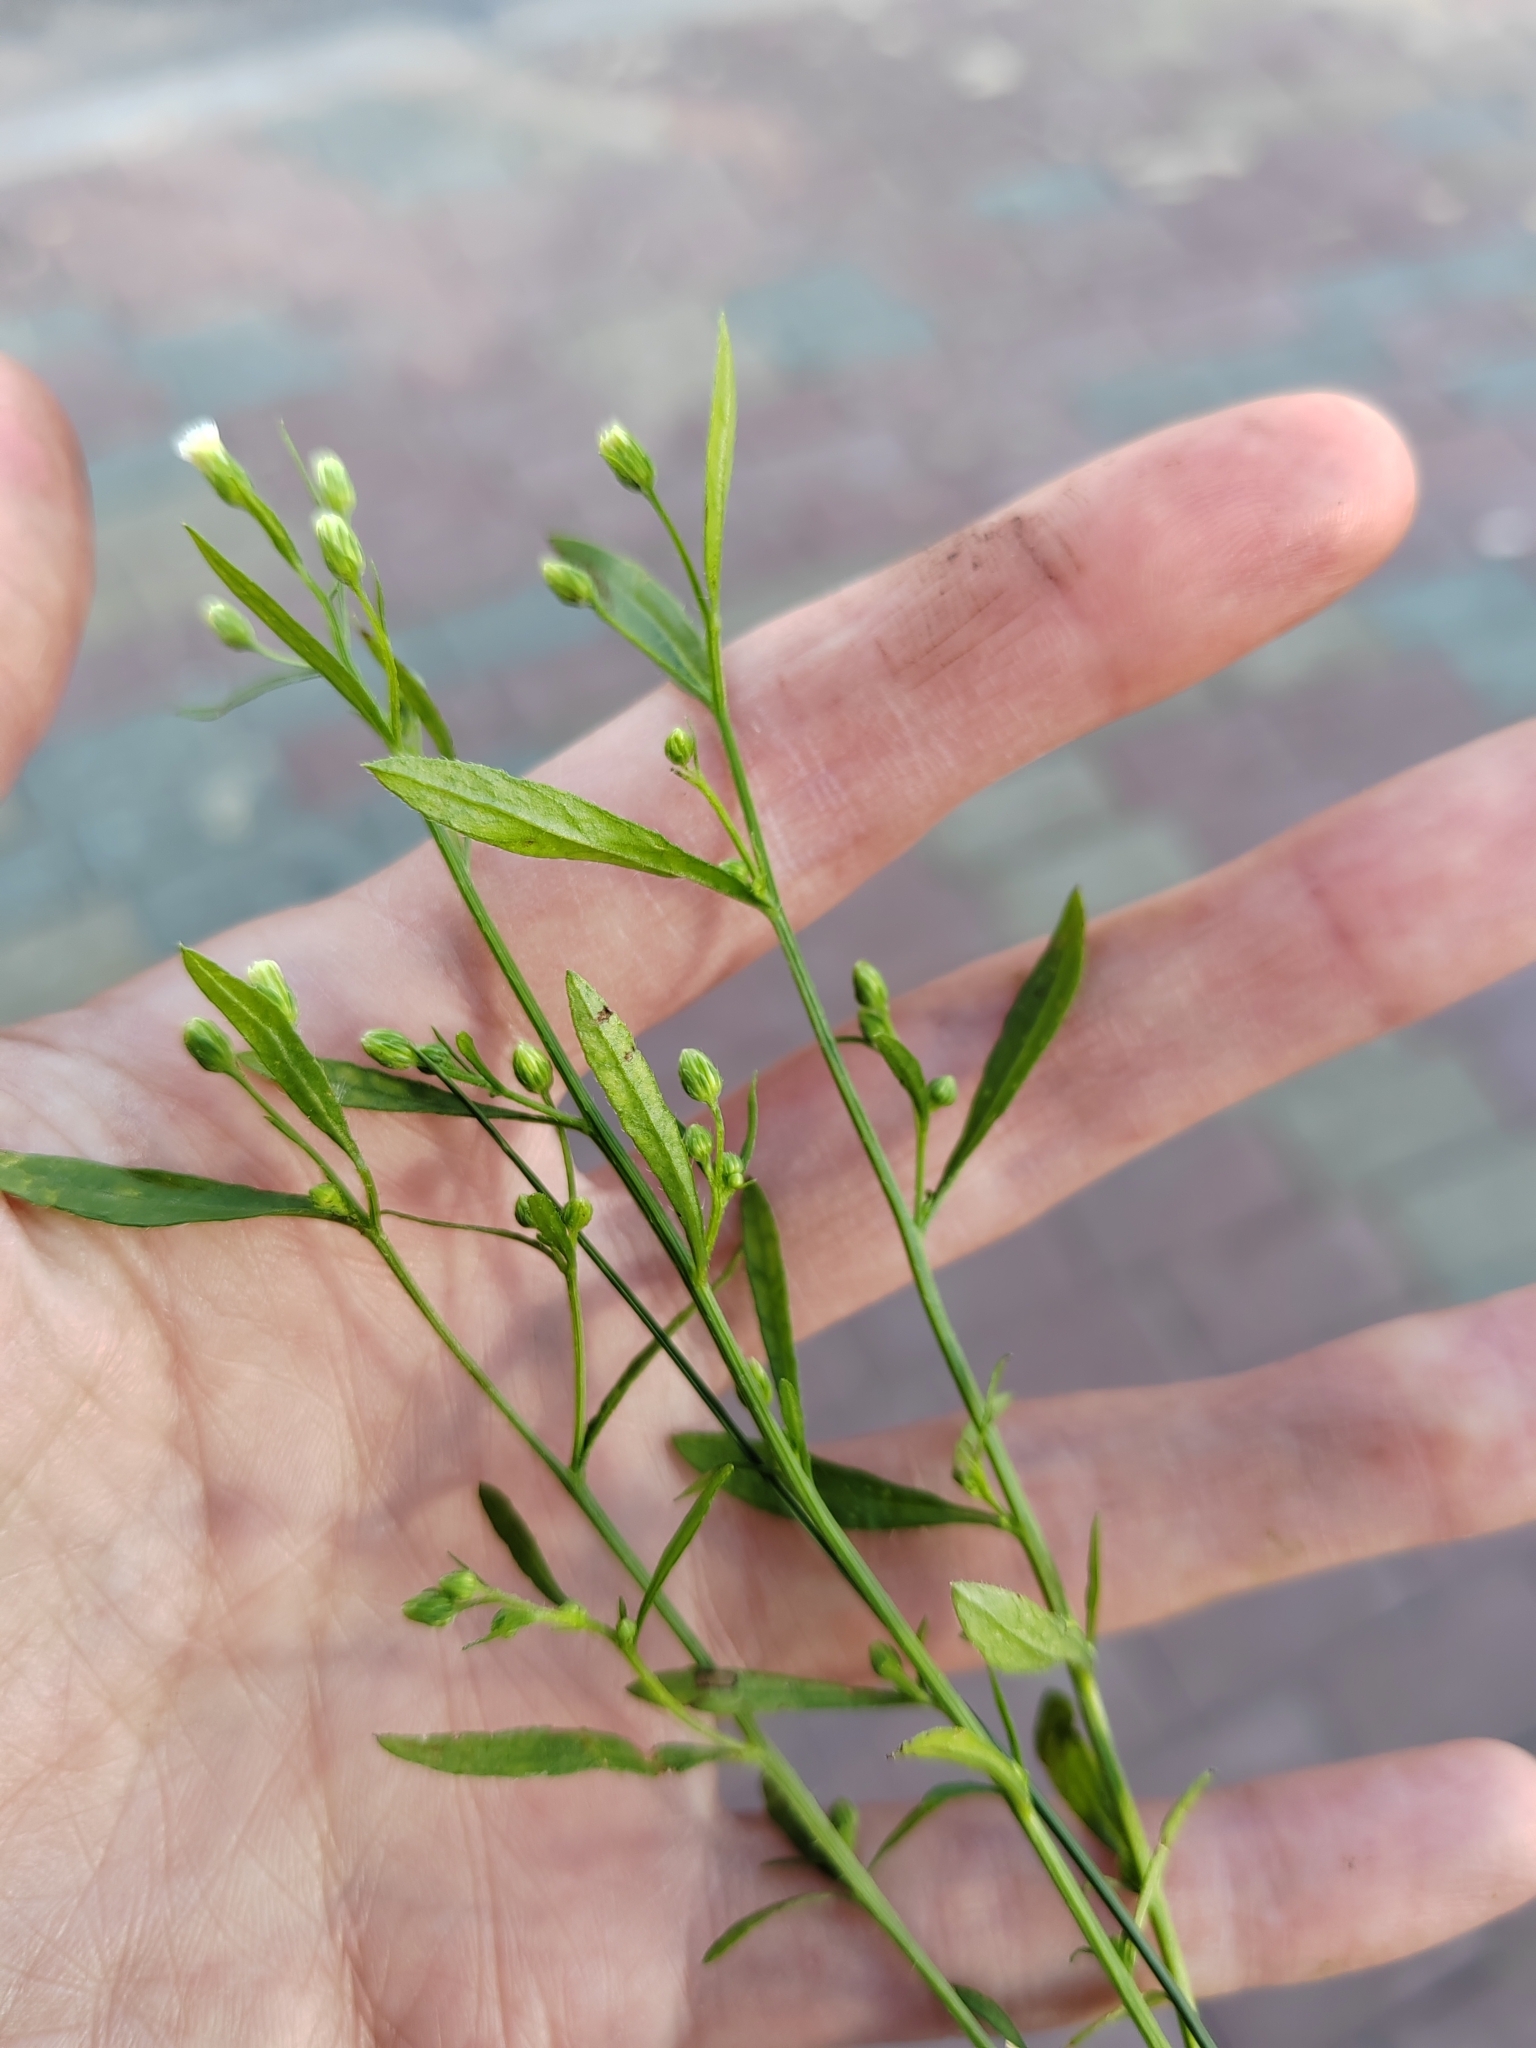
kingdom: Plantae
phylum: Tracheophyta
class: Magnoliopsida
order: Asterales
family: Asteraceae
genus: Erigeron
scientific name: Erigeron canadensis
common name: Canadian fleabane
